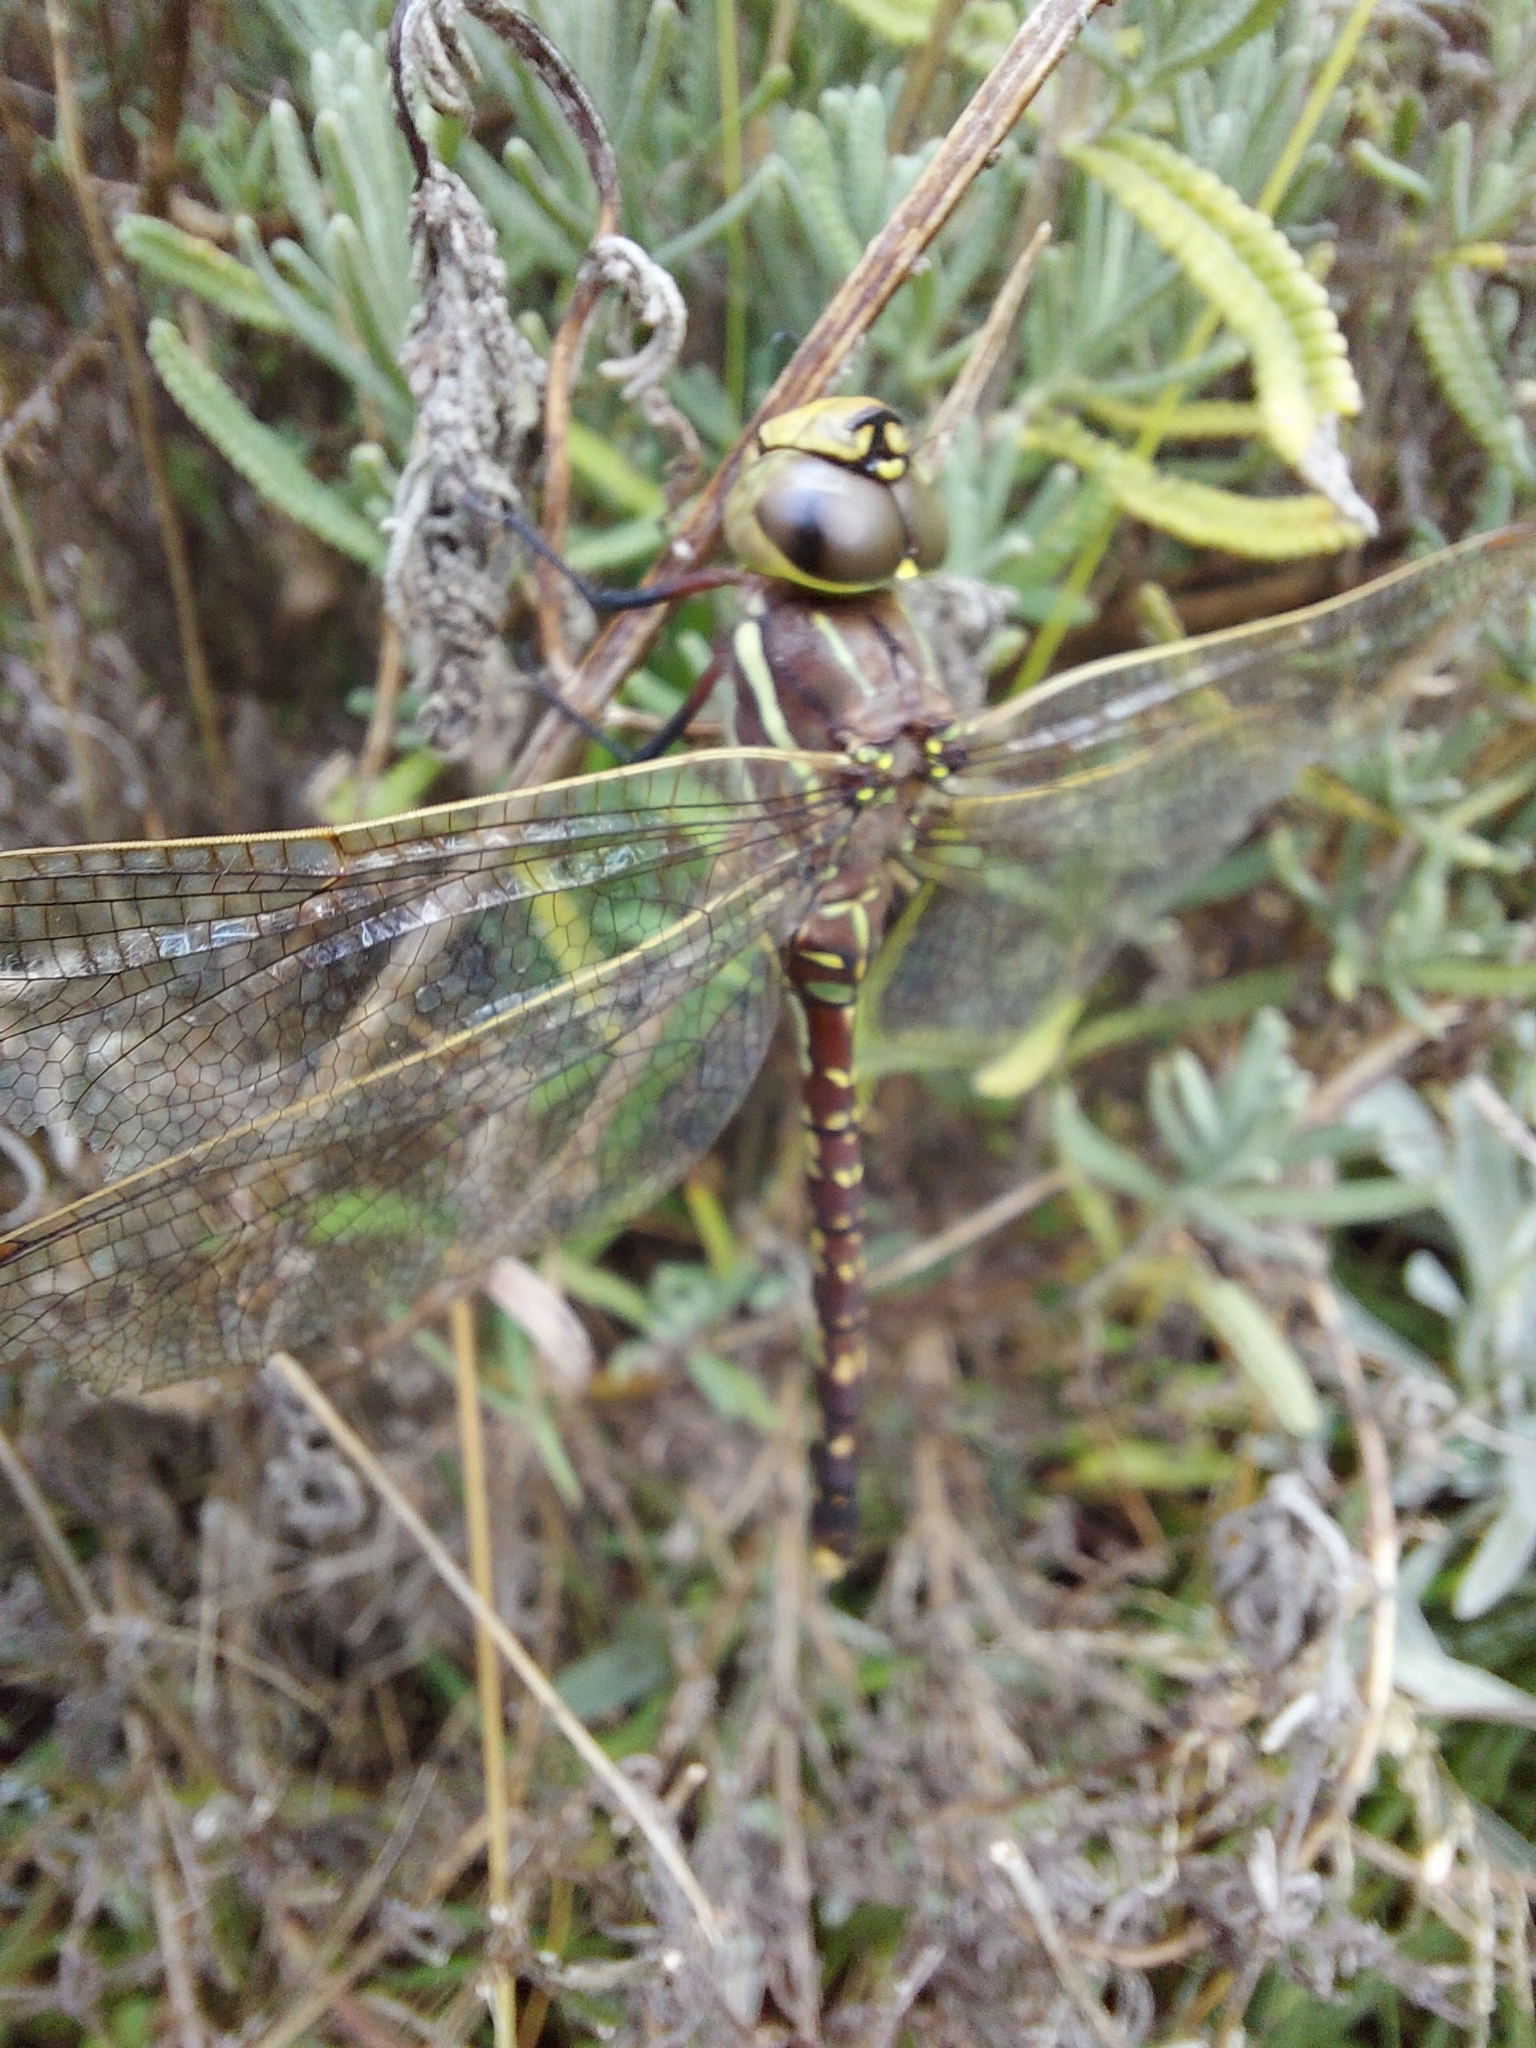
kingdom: Animalia
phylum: Arthropoda
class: Insecta
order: Odonata
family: Aeshnidae
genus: Aeshna
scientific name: Aeshna brevistyla
